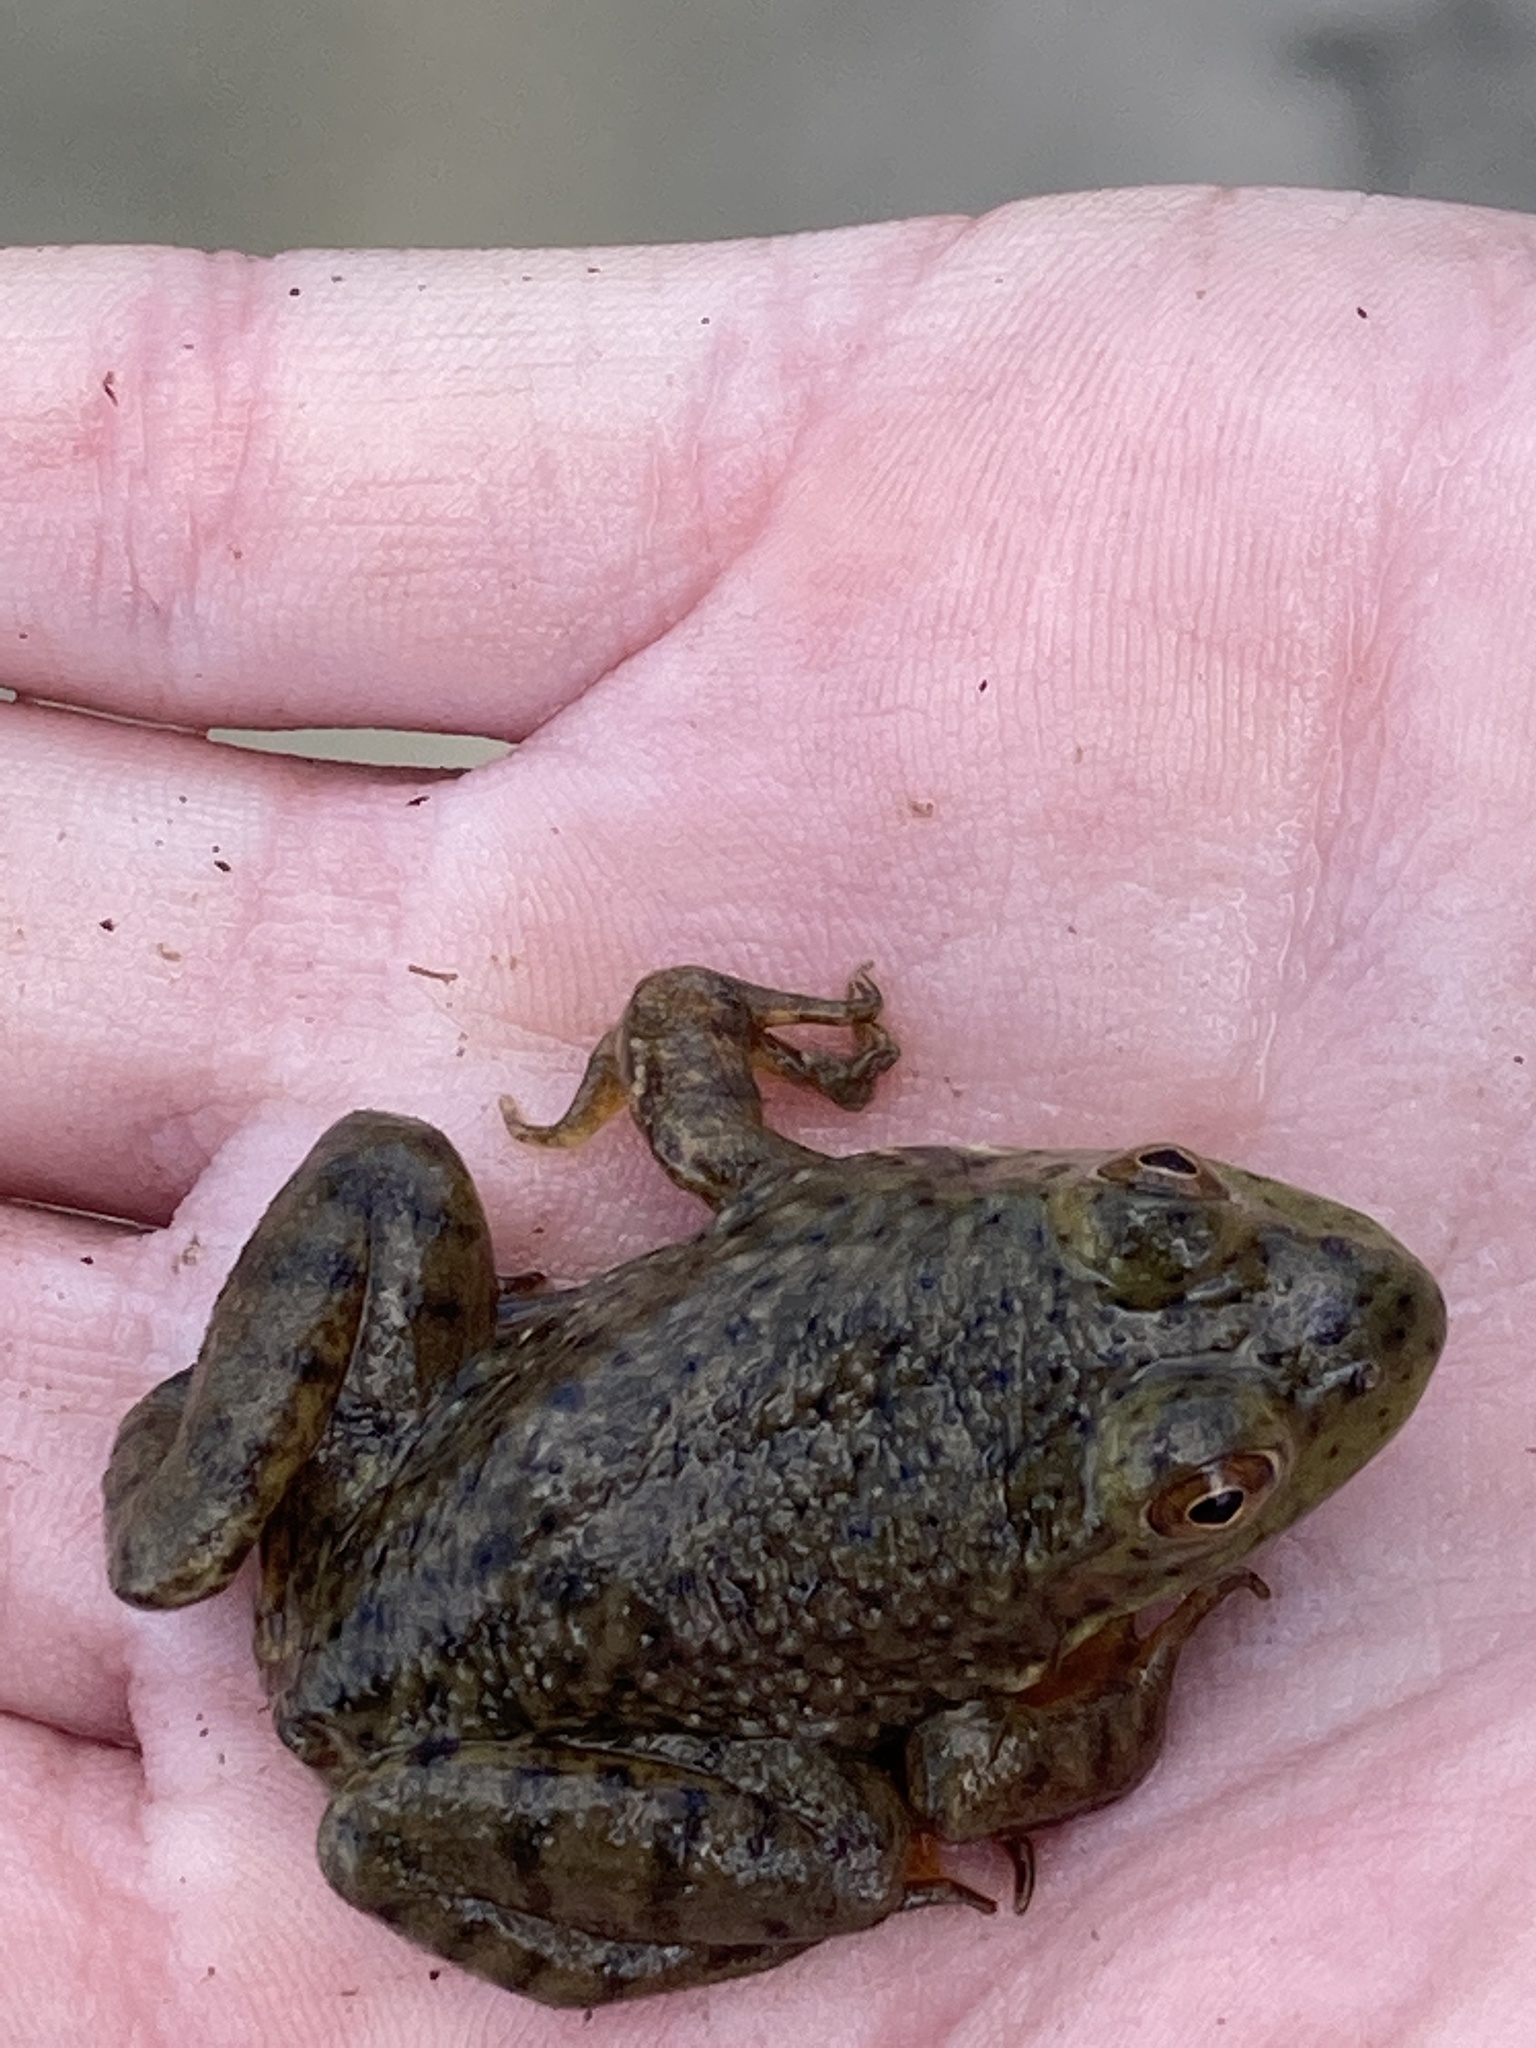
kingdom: Animalia
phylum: Chordata
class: Amphibia
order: Anura
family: Ranidae
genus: Lithobates
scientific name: Lithobates catesbeianus
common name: American bullfrog
